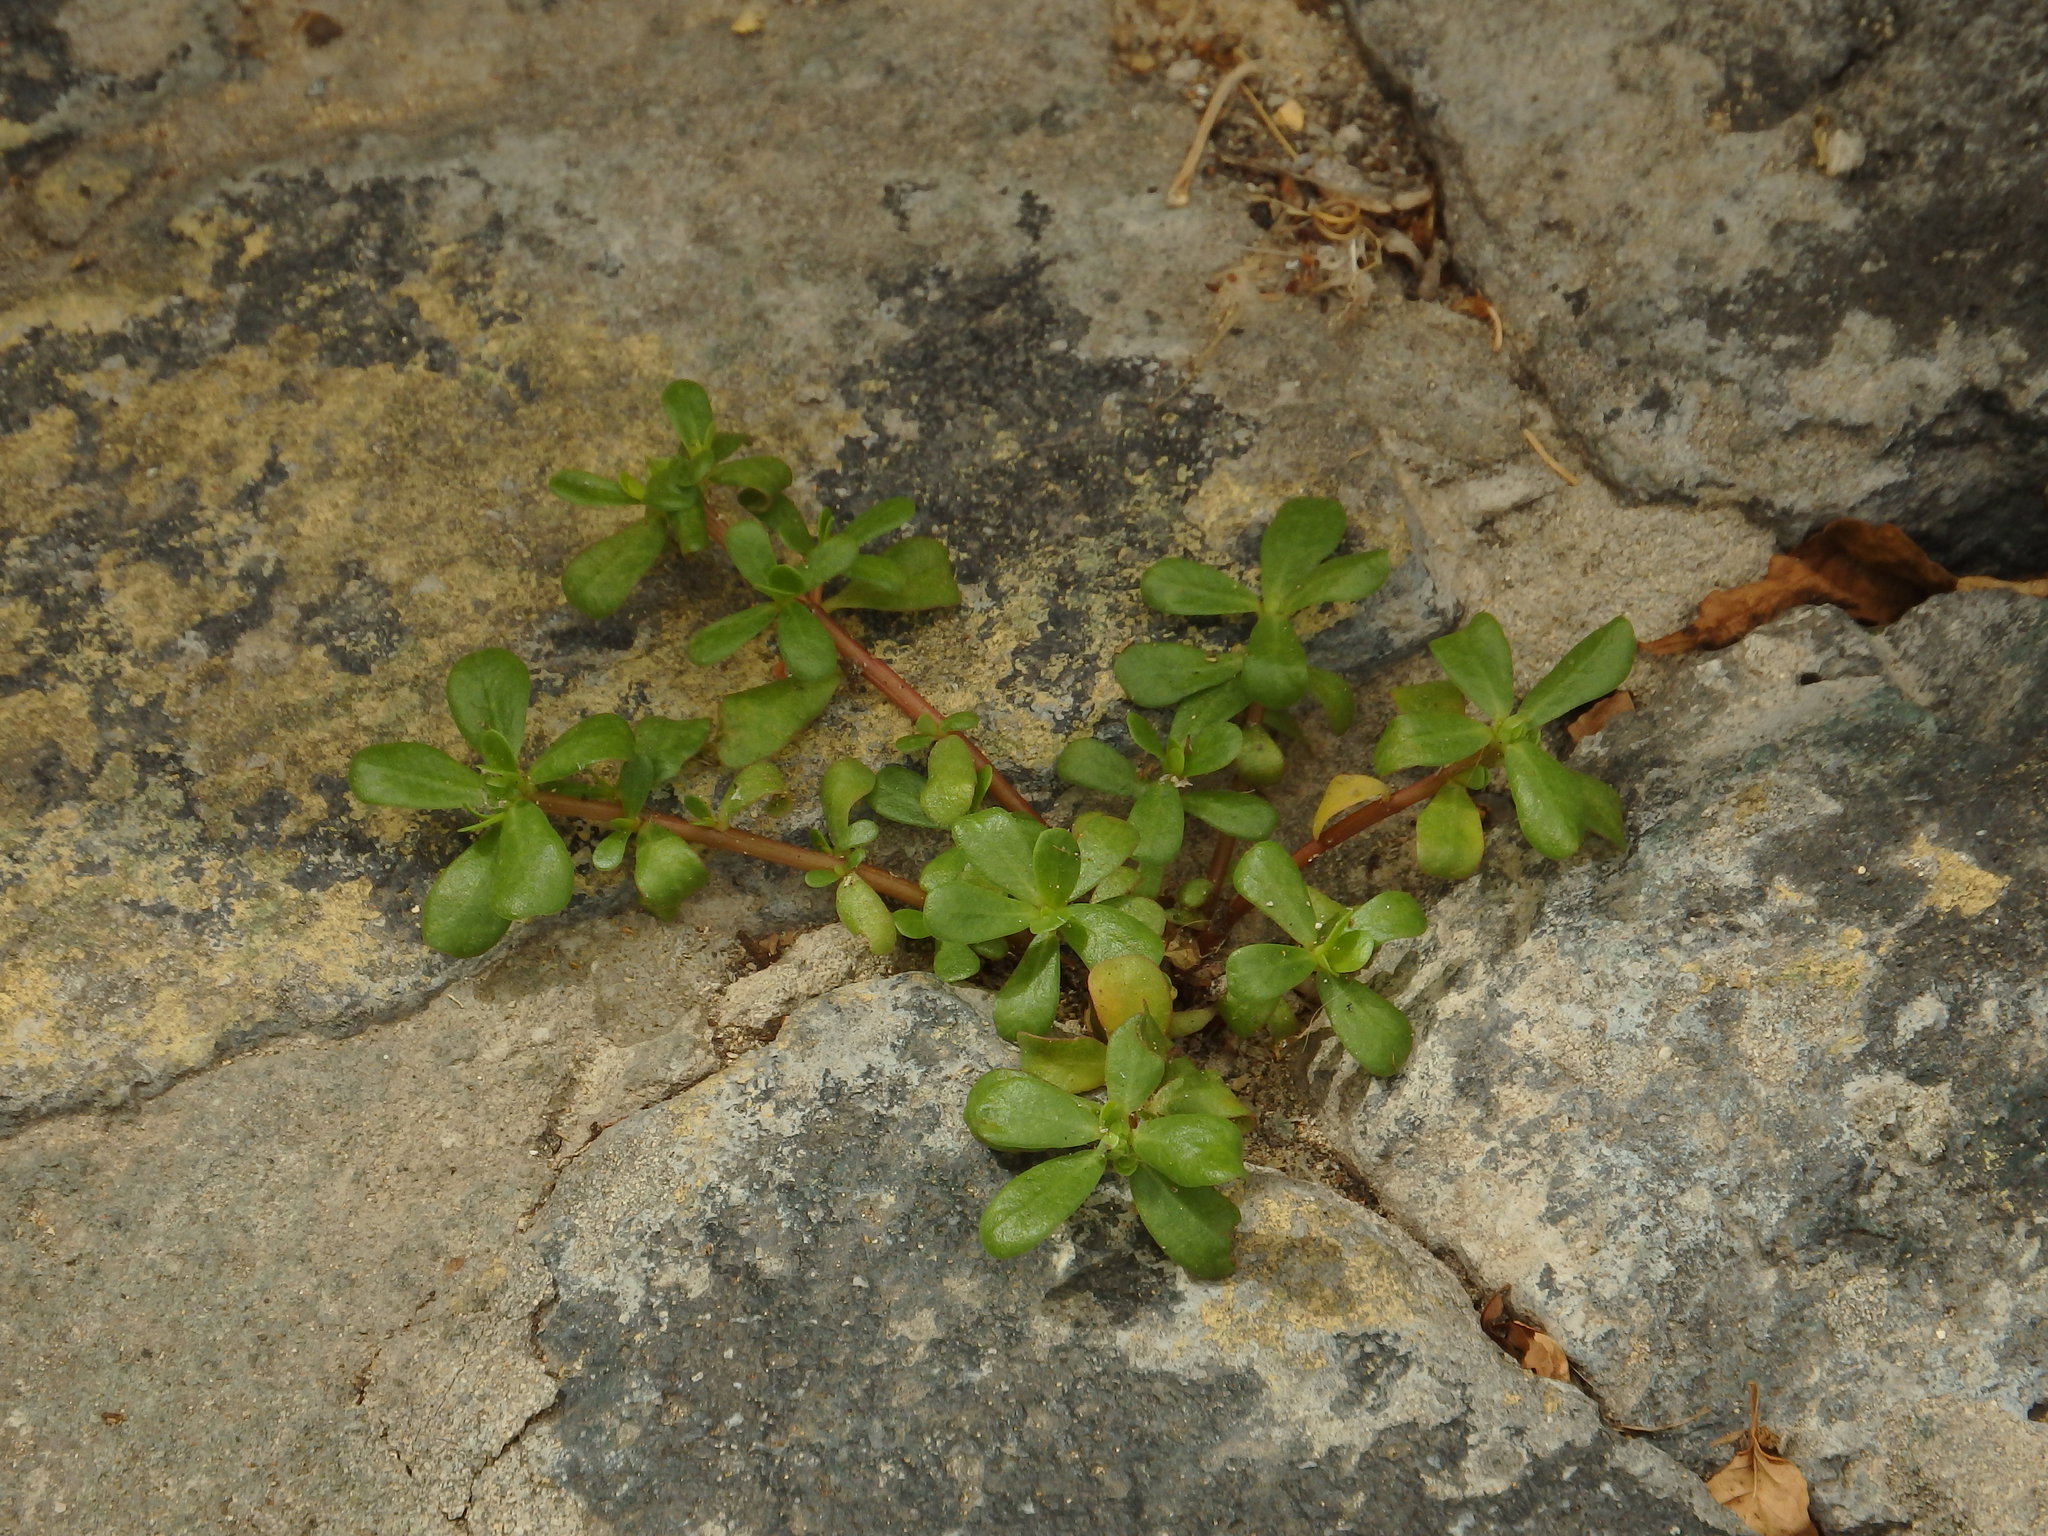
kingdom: Plantae
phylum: Tracheophyta
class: Magnoliopsida
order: Caryophyllales
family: Portulacaceae
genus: Portulaca
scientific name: Portulaca oleracea
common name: Common purslane
